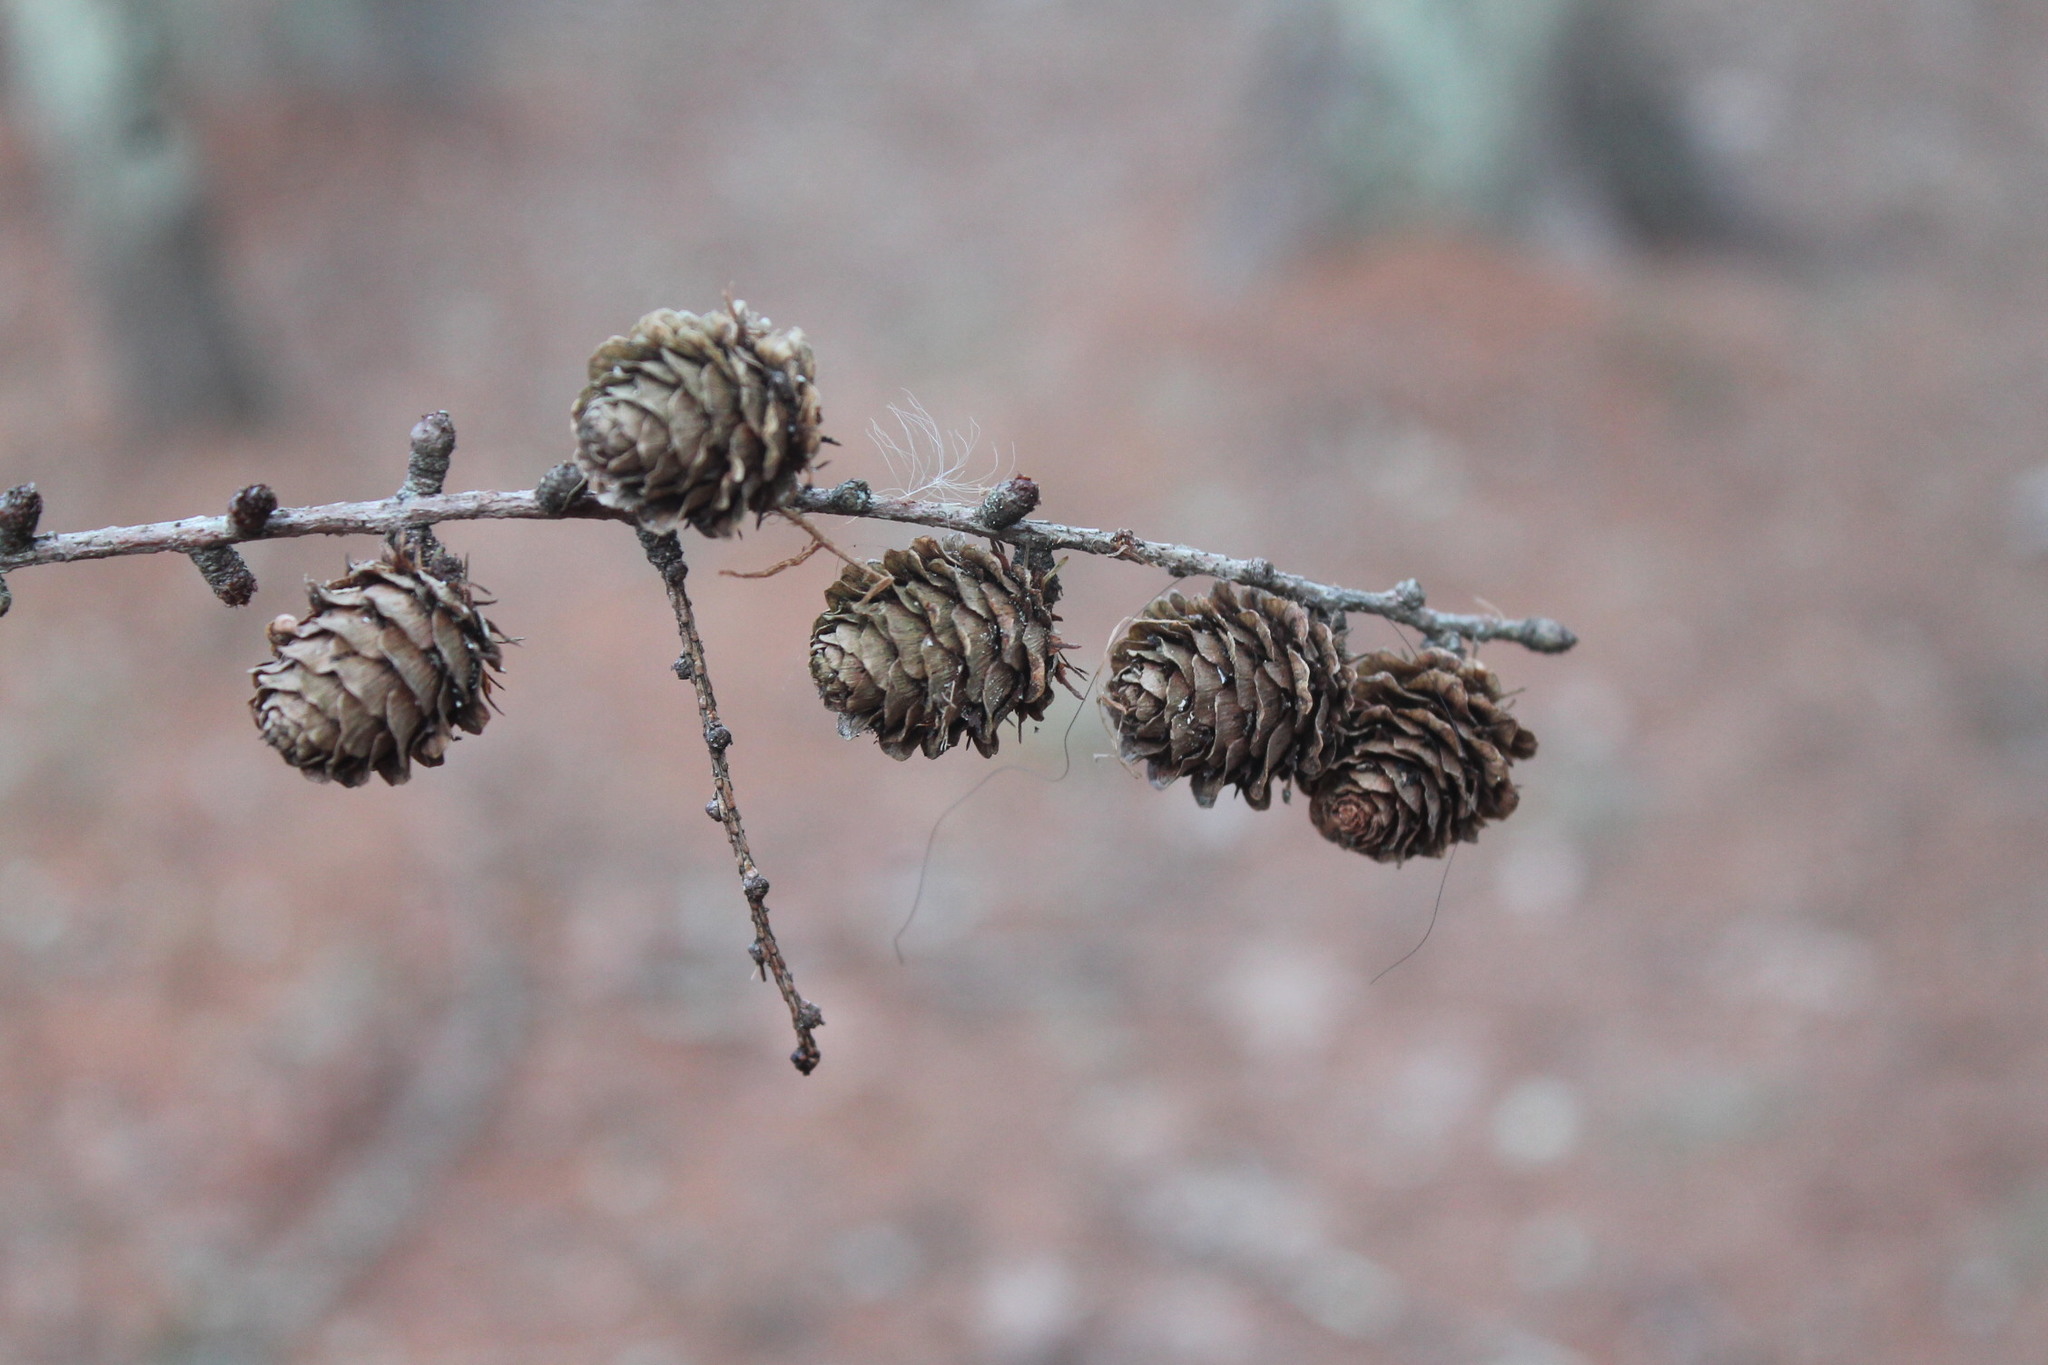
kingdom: Plantae
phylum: Tracheophyta
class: Pinopsida
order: Pinales
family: Pinaceae
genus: Larix
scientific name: Larix decidua
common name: European larch
